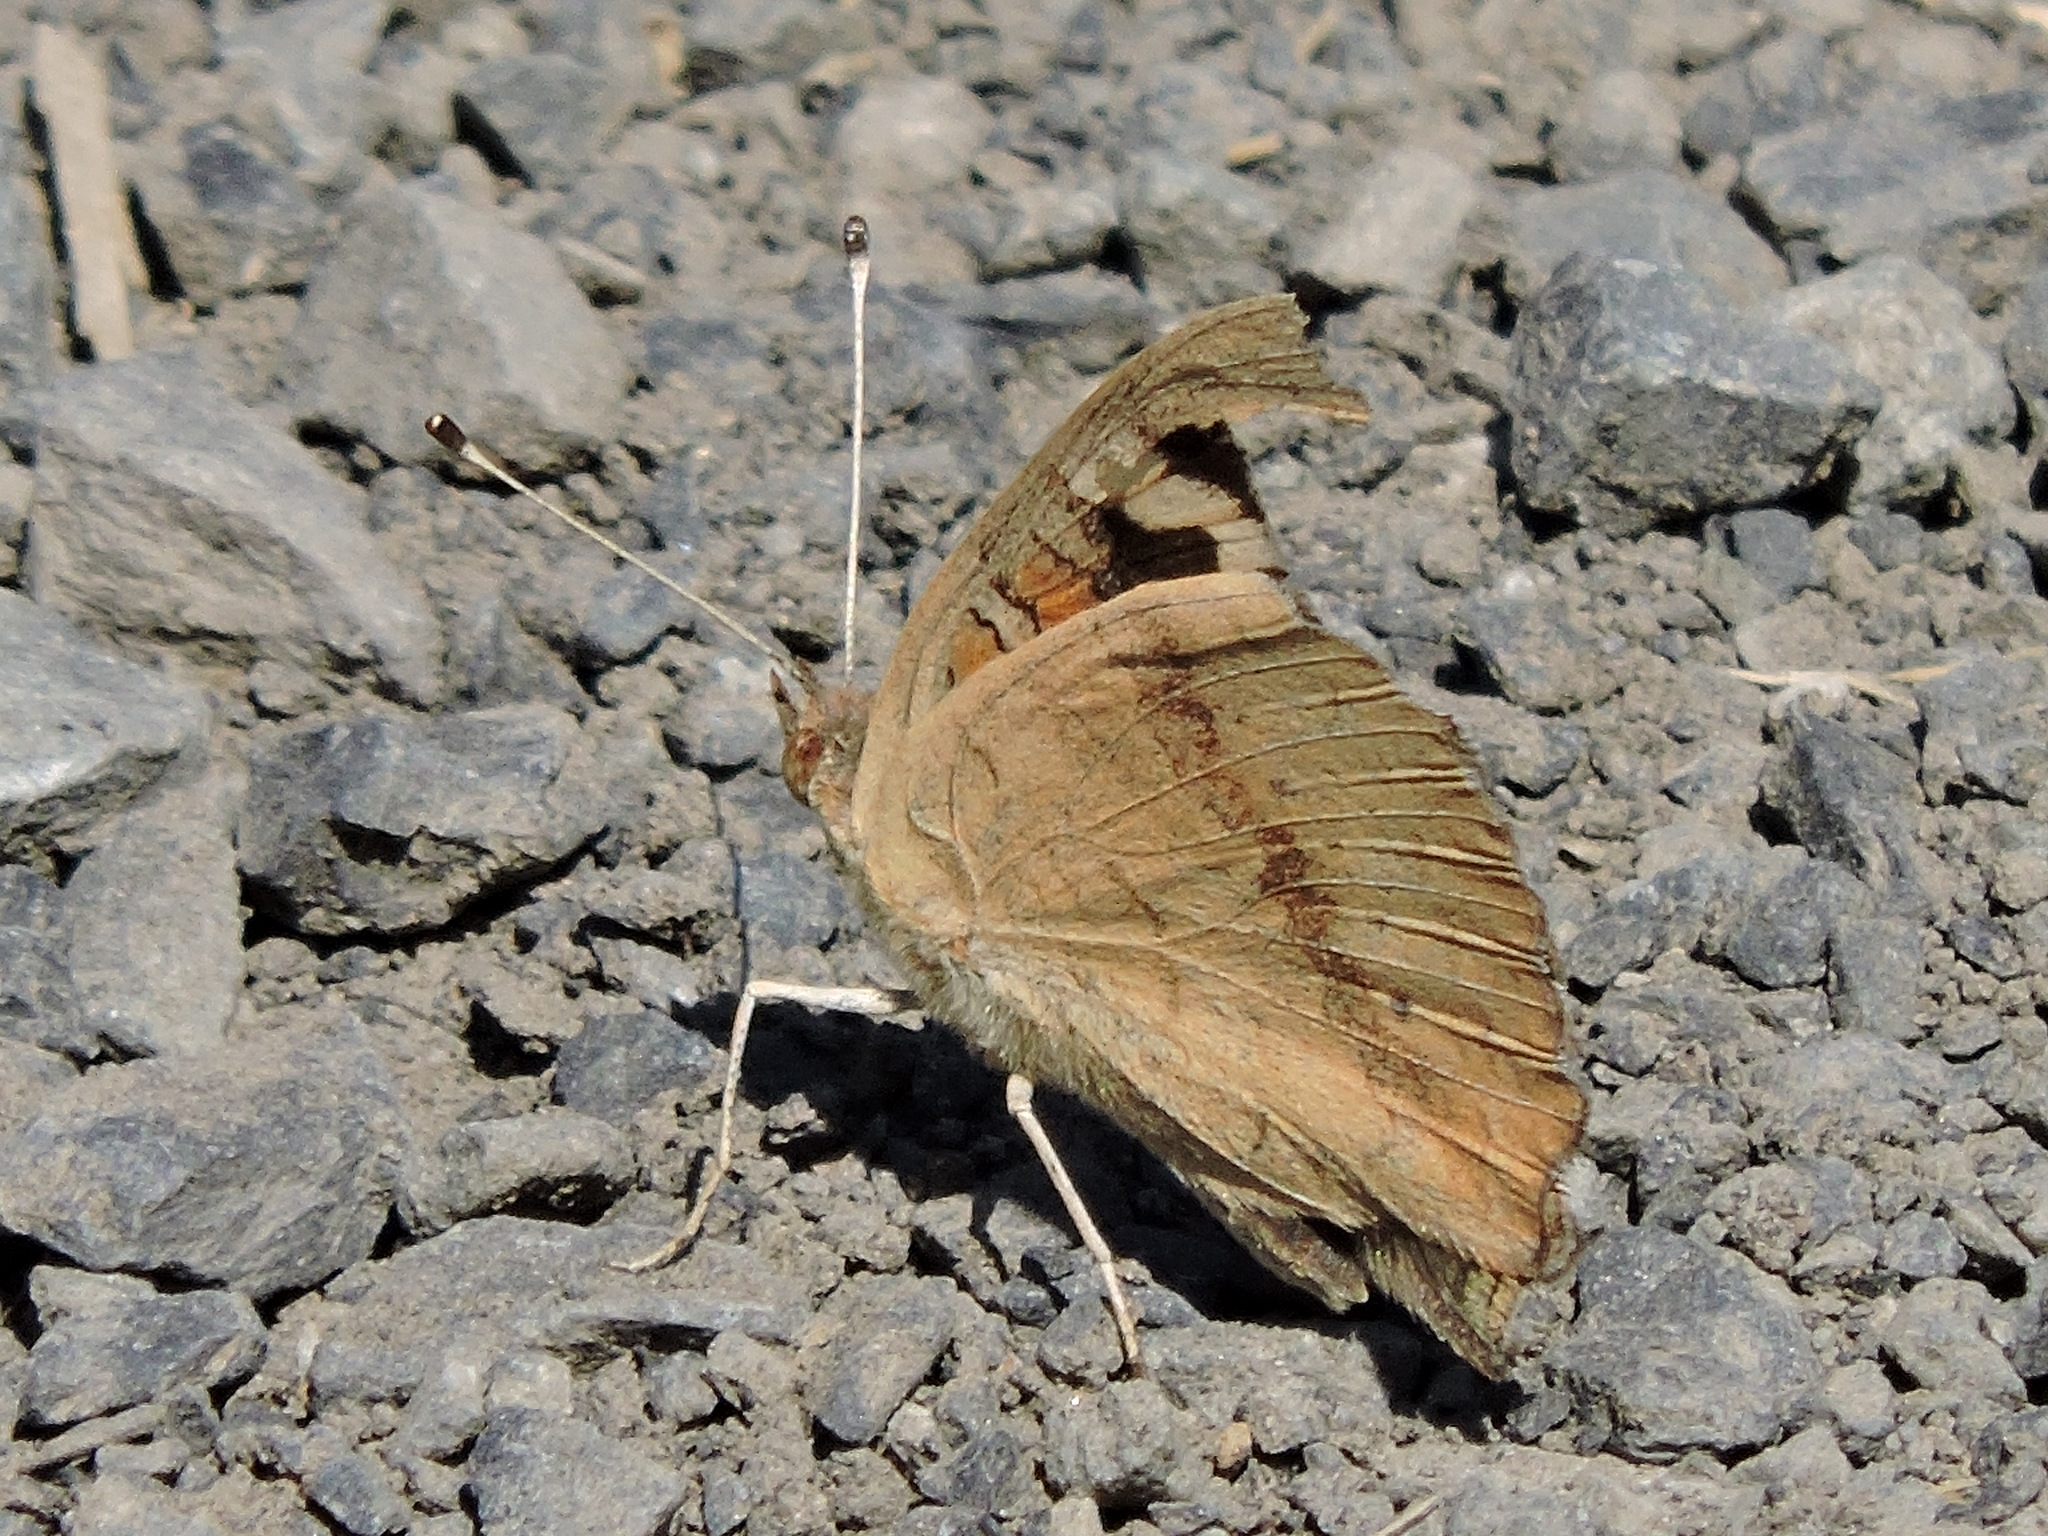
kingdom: Animalia
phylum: Arthropoda
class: Insecta
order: Lepidoptera
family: Nymphalidae
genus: Junonia
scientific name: Junonia grisea
